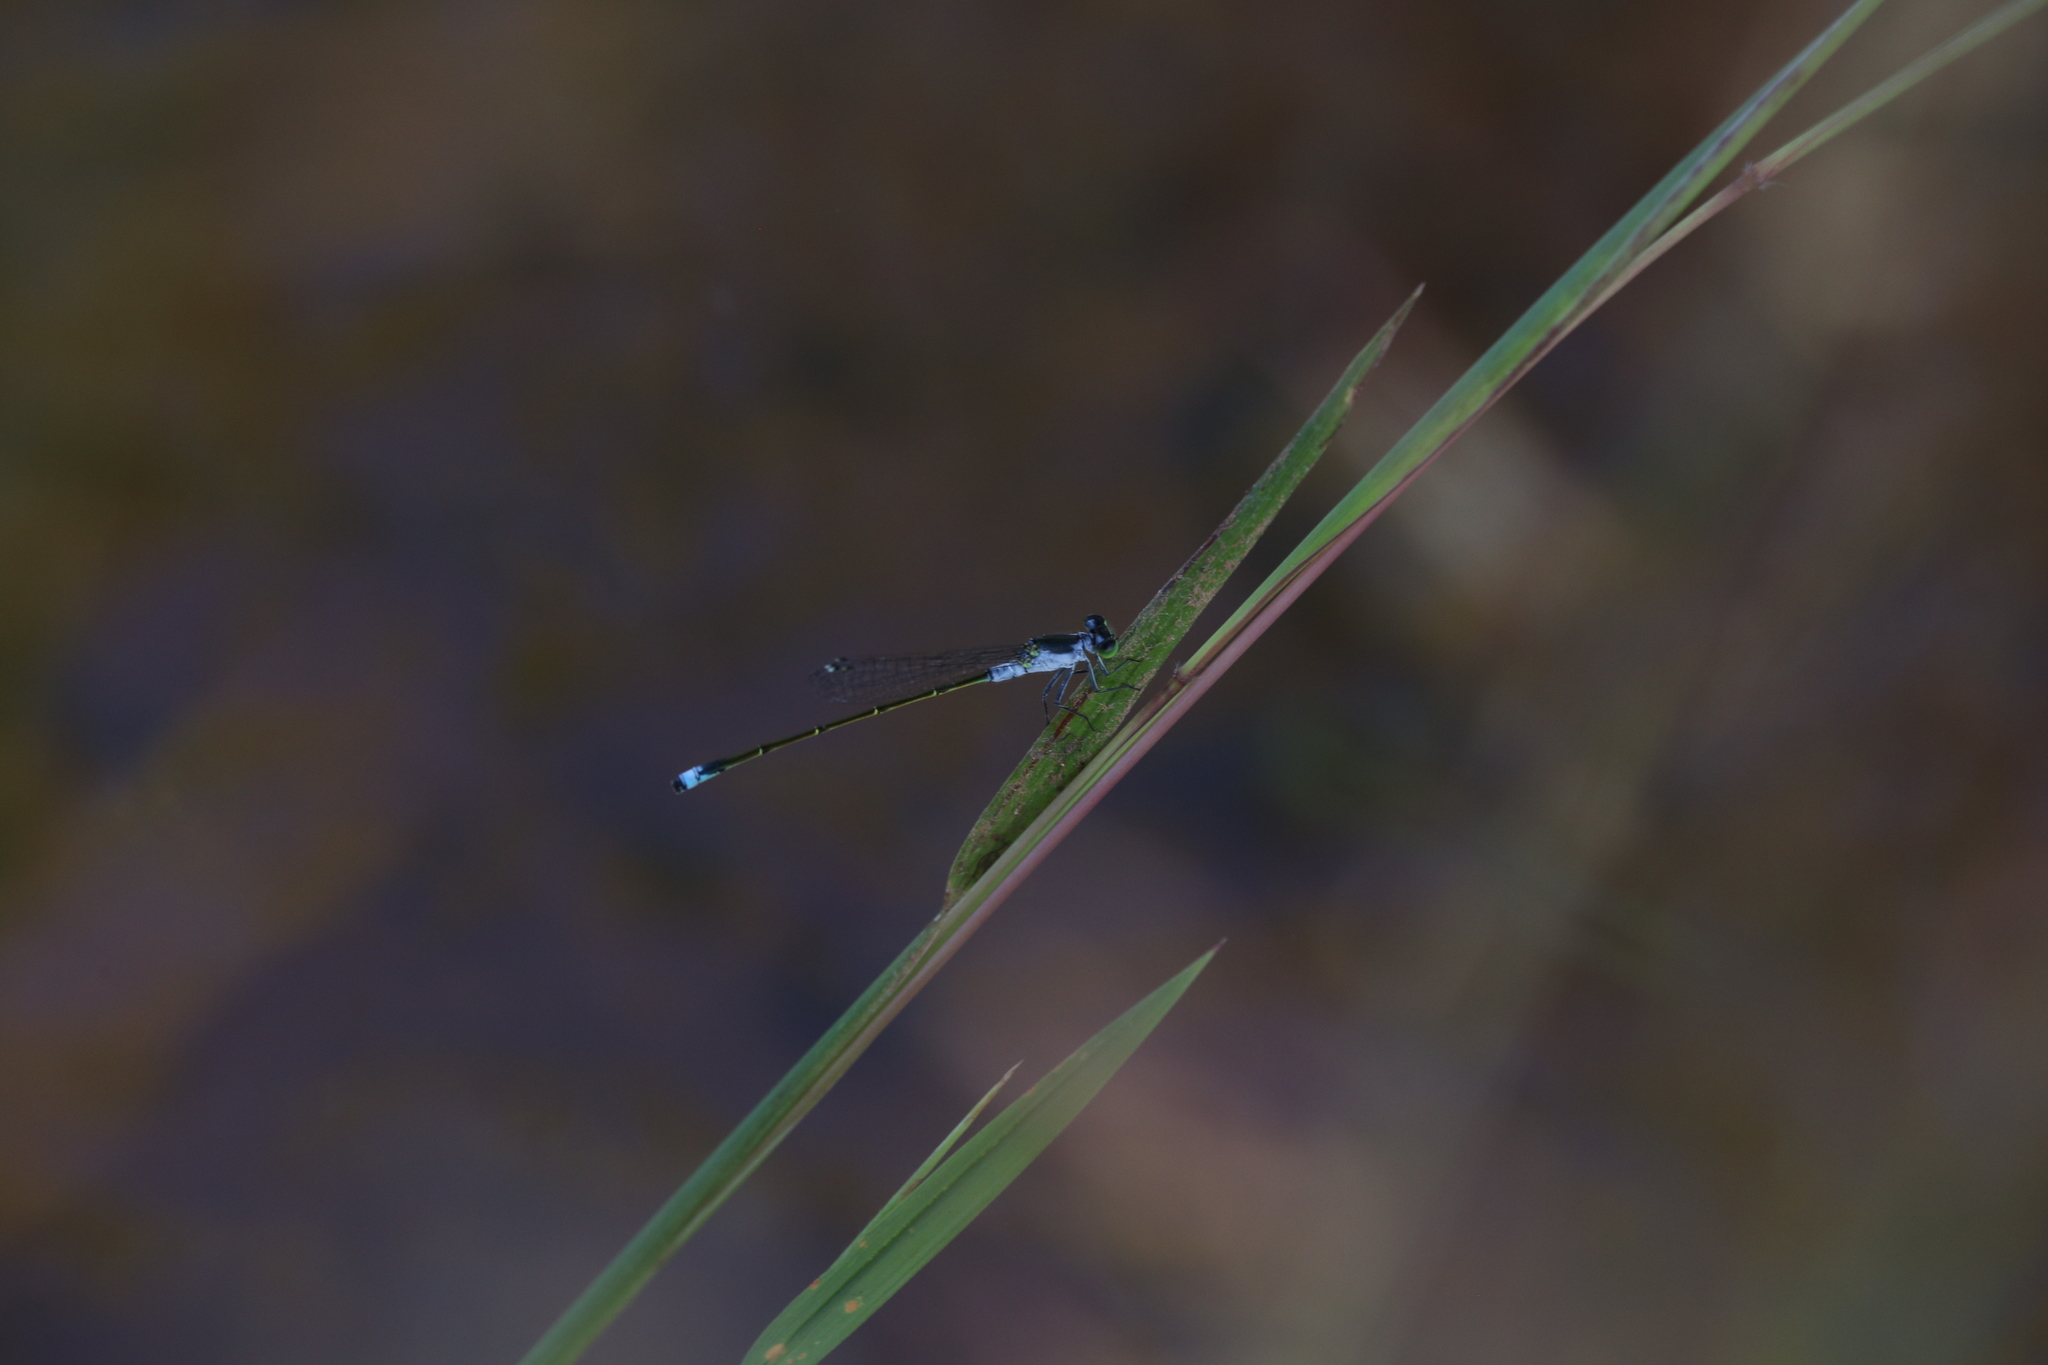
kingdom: Animalia
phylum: Arthropoda
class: Insecta
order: Odonata
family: Coenagrionidae
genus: Ischnura
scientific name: Ischnura pruinescens
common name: Colourful bluetail
